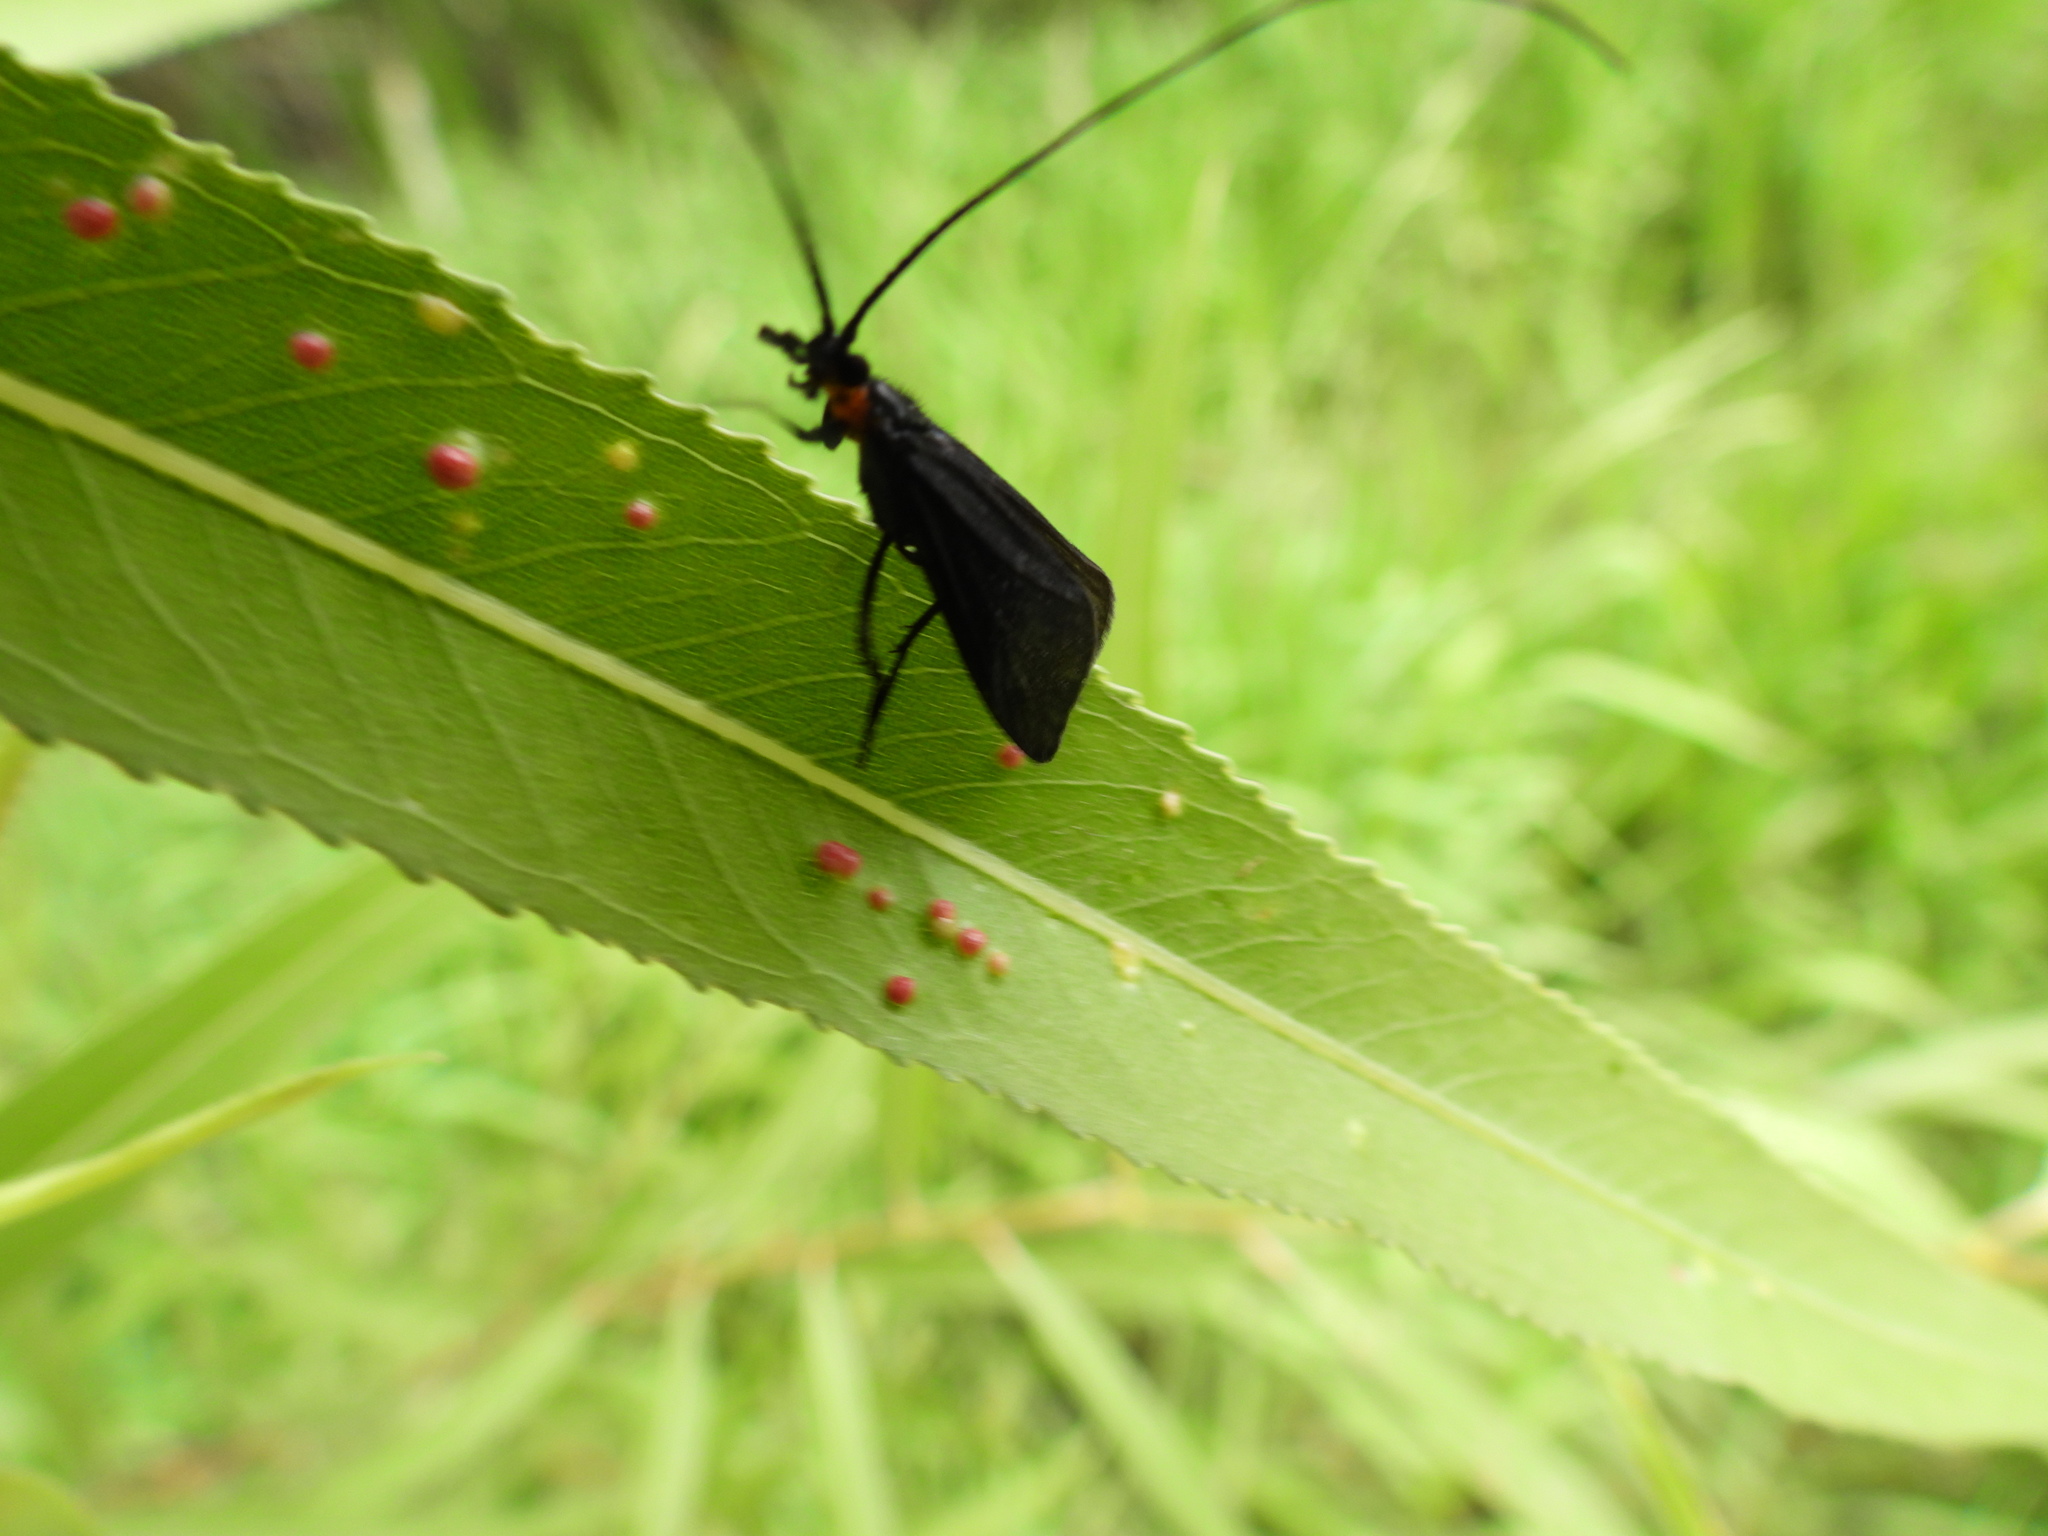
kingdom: Animalia
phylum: Arthropoda
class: Insecta
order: Trichoptera
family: Calamoceratidae
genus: Phylloicus
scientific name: Phylloicus mexicanus
